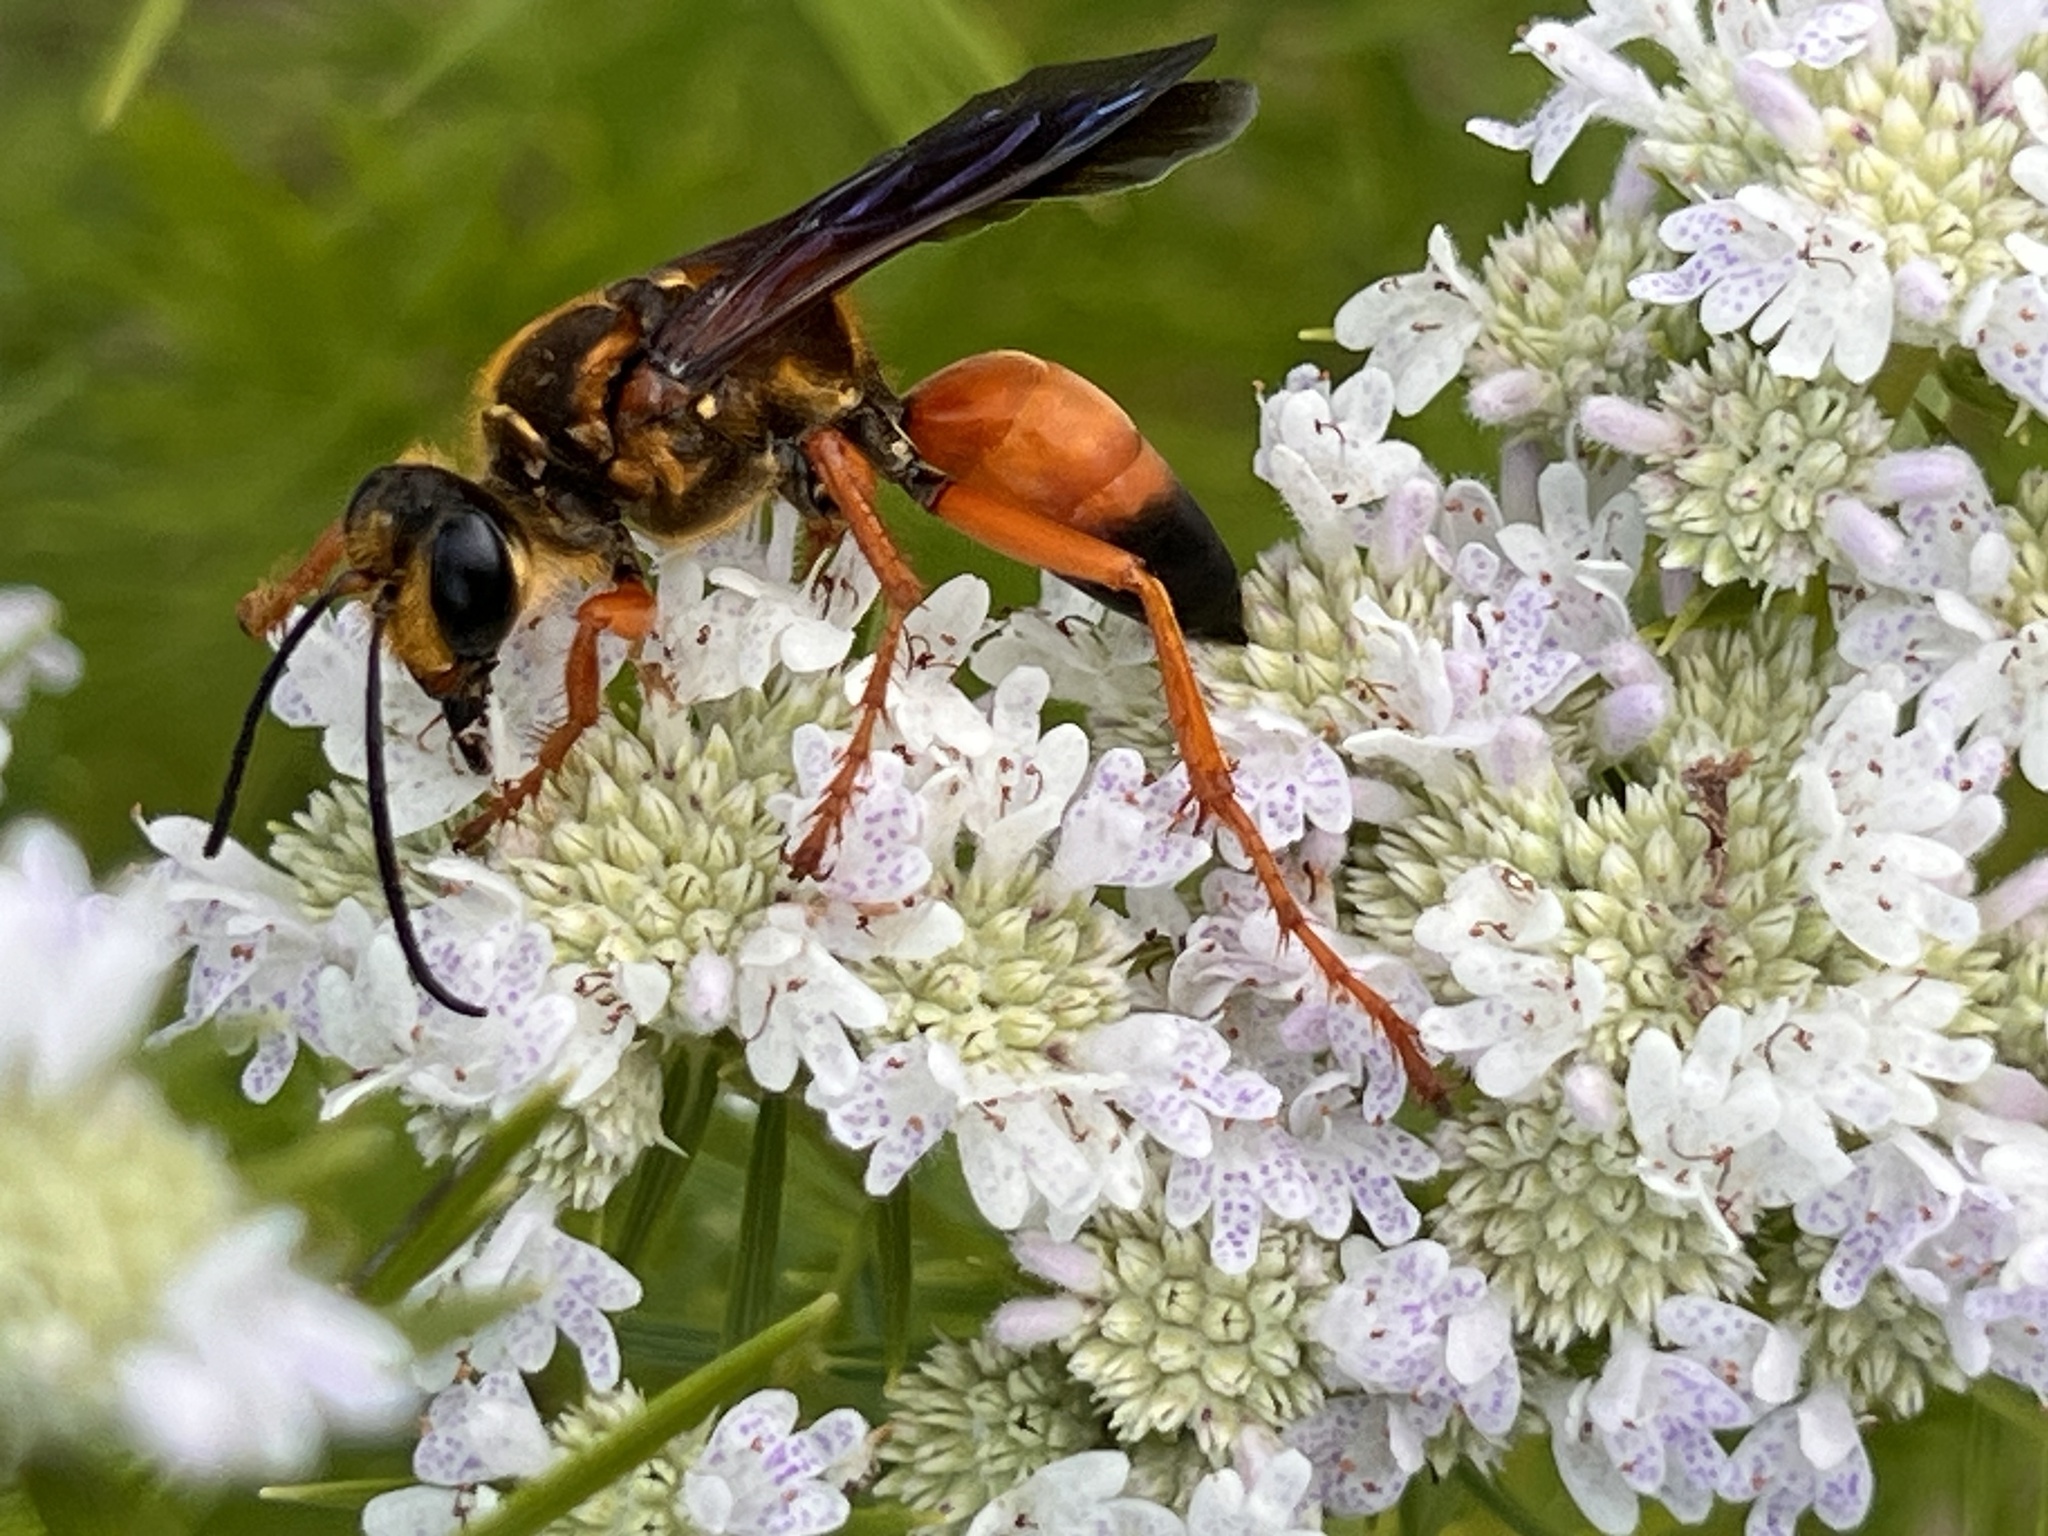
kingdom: Animalia
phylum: Arthropoda
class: Insecta
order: Hymenoptera
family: Sphecidae
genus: Sphex
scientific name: Sphex ichneumoneus
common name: Great golden digger wasp
